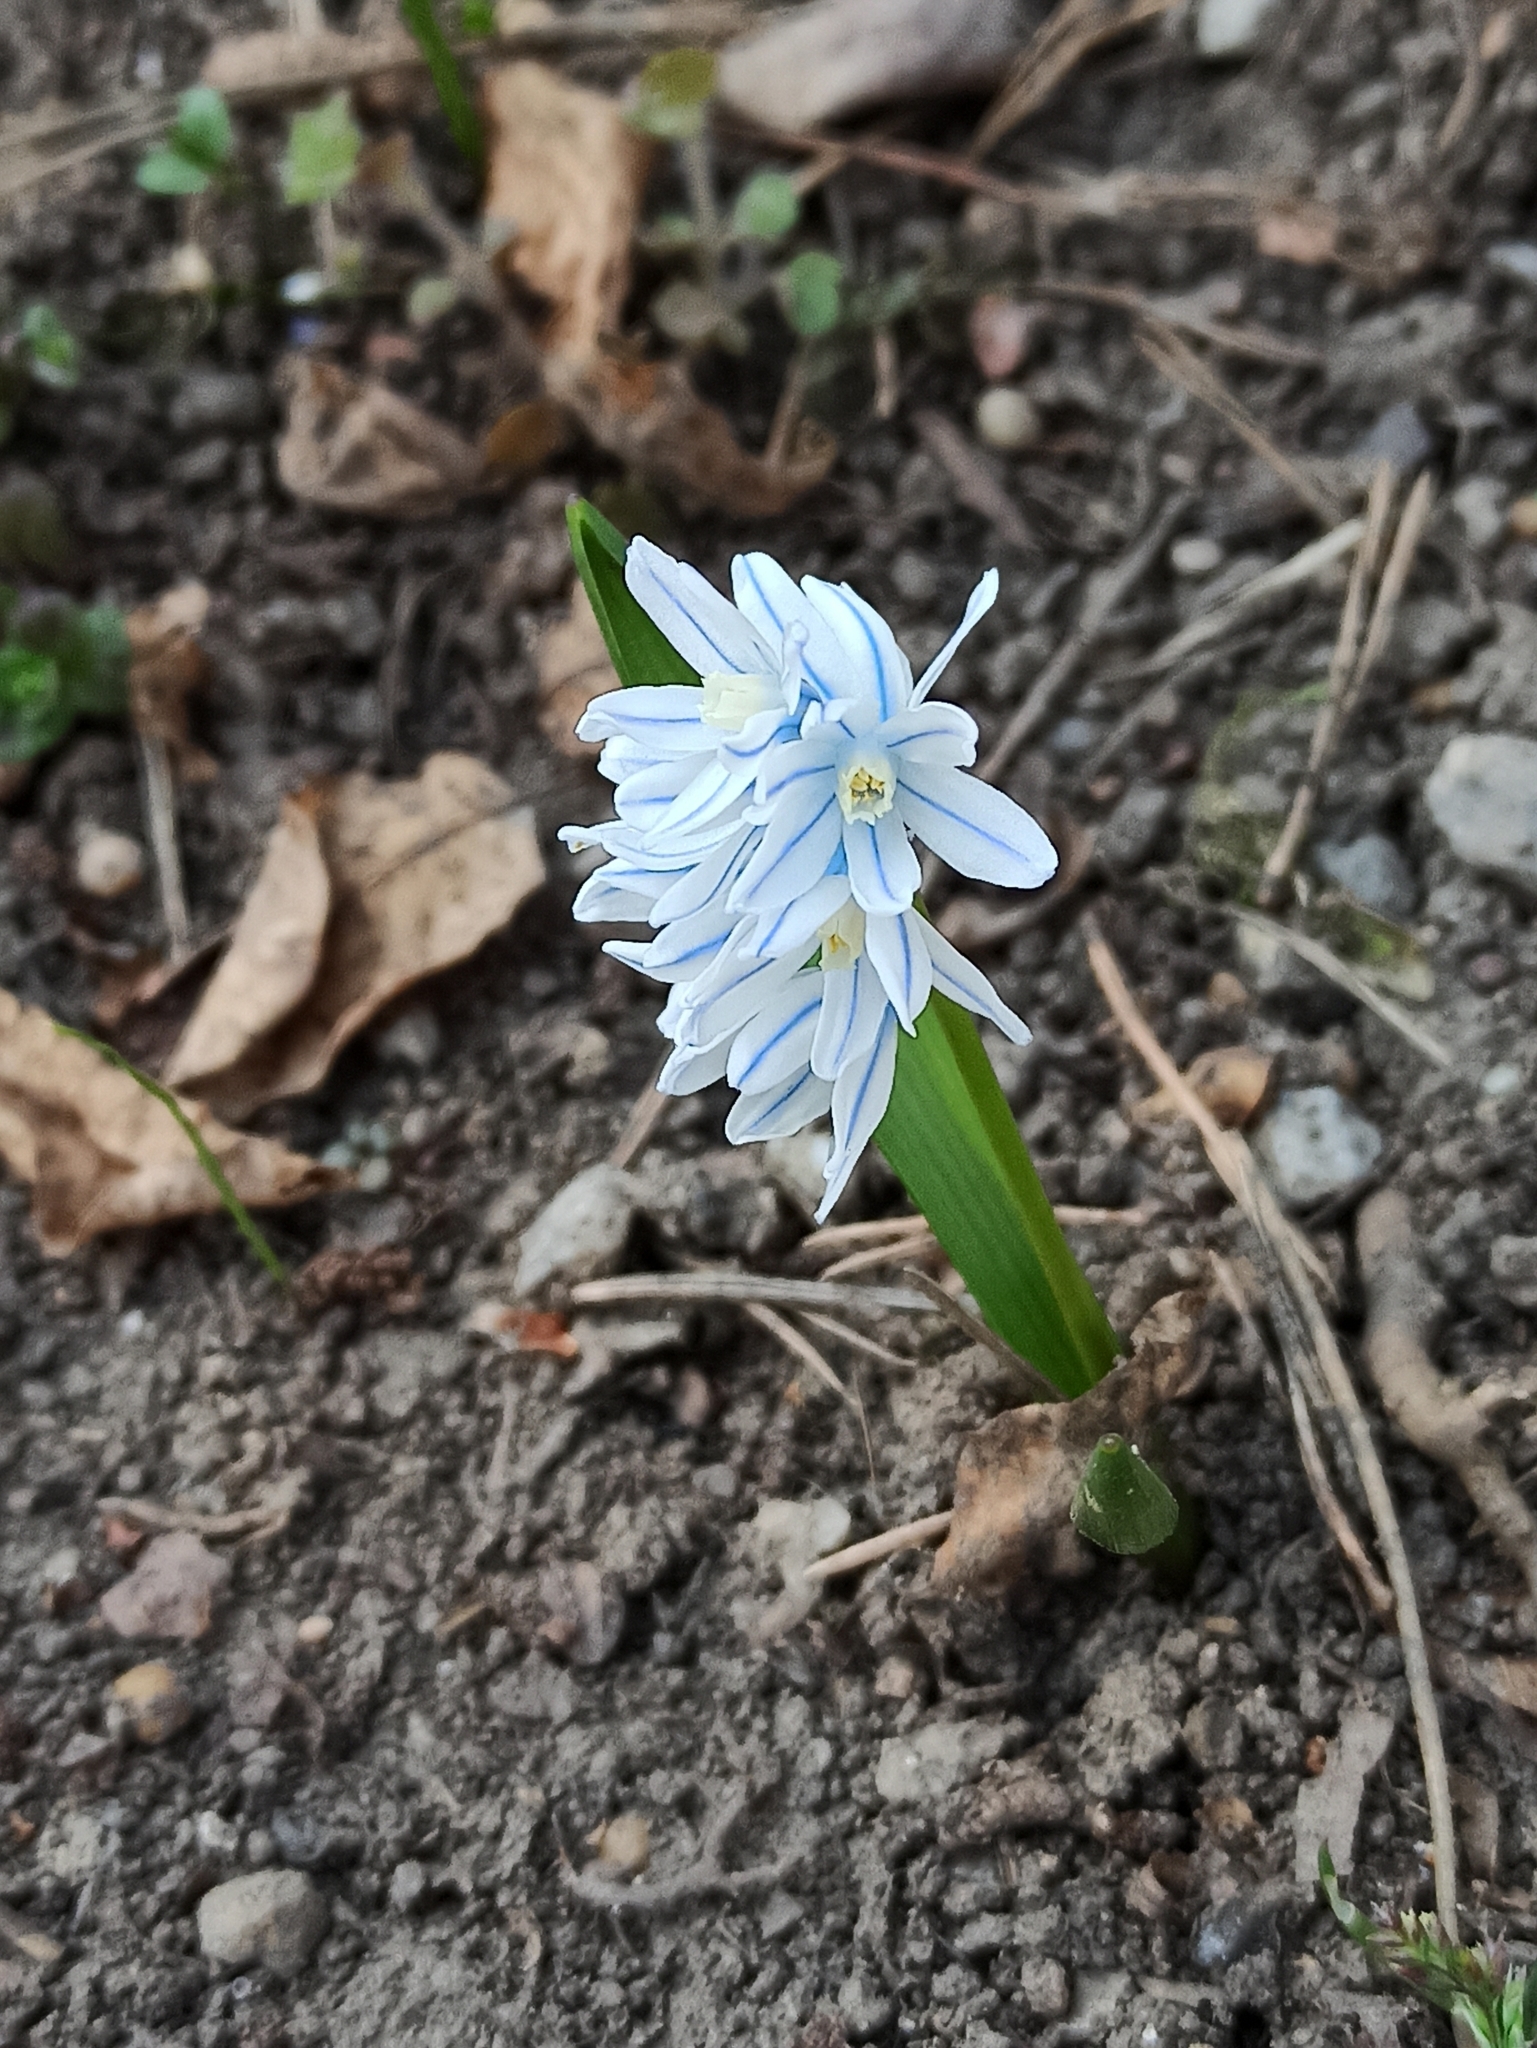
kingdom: Plantae
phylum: Tracheophyta
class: Liliopsida
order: Asparagales
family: Asparagaceae
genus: Puschkinia
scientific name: Puschkinia scilloides
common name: Striped squill
